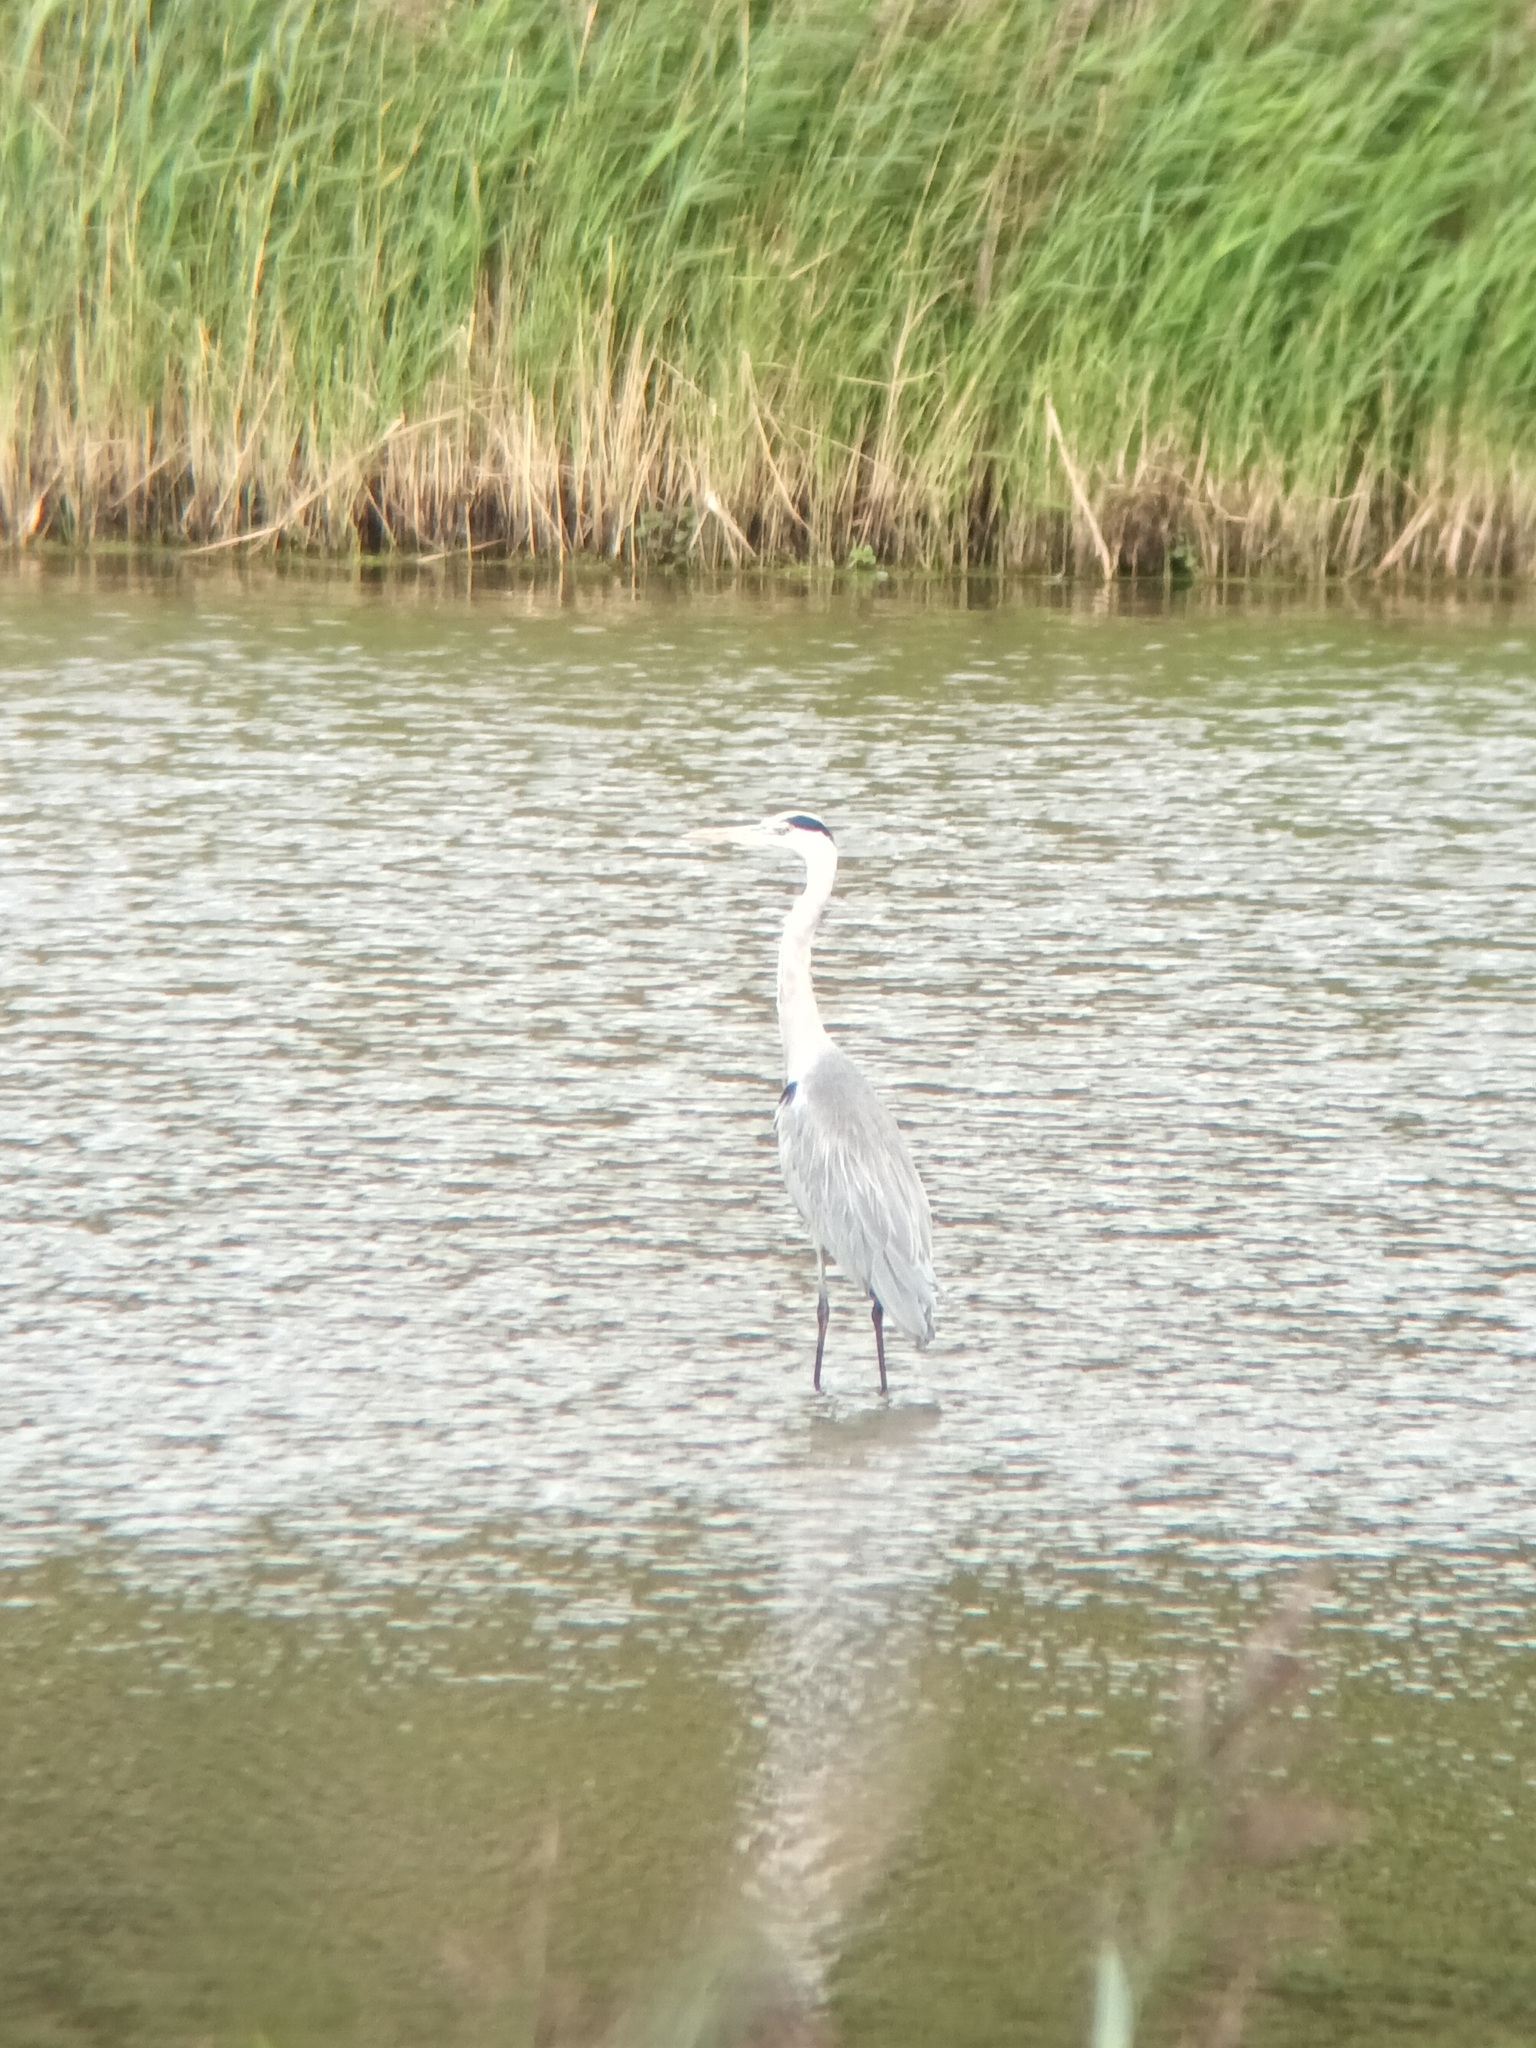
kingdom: Animalia
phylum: Chordata
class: Aves
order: Pelecaniformes
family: Ardeidae
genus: Ardea
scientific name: Ardea cinerea
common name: Grey heron
